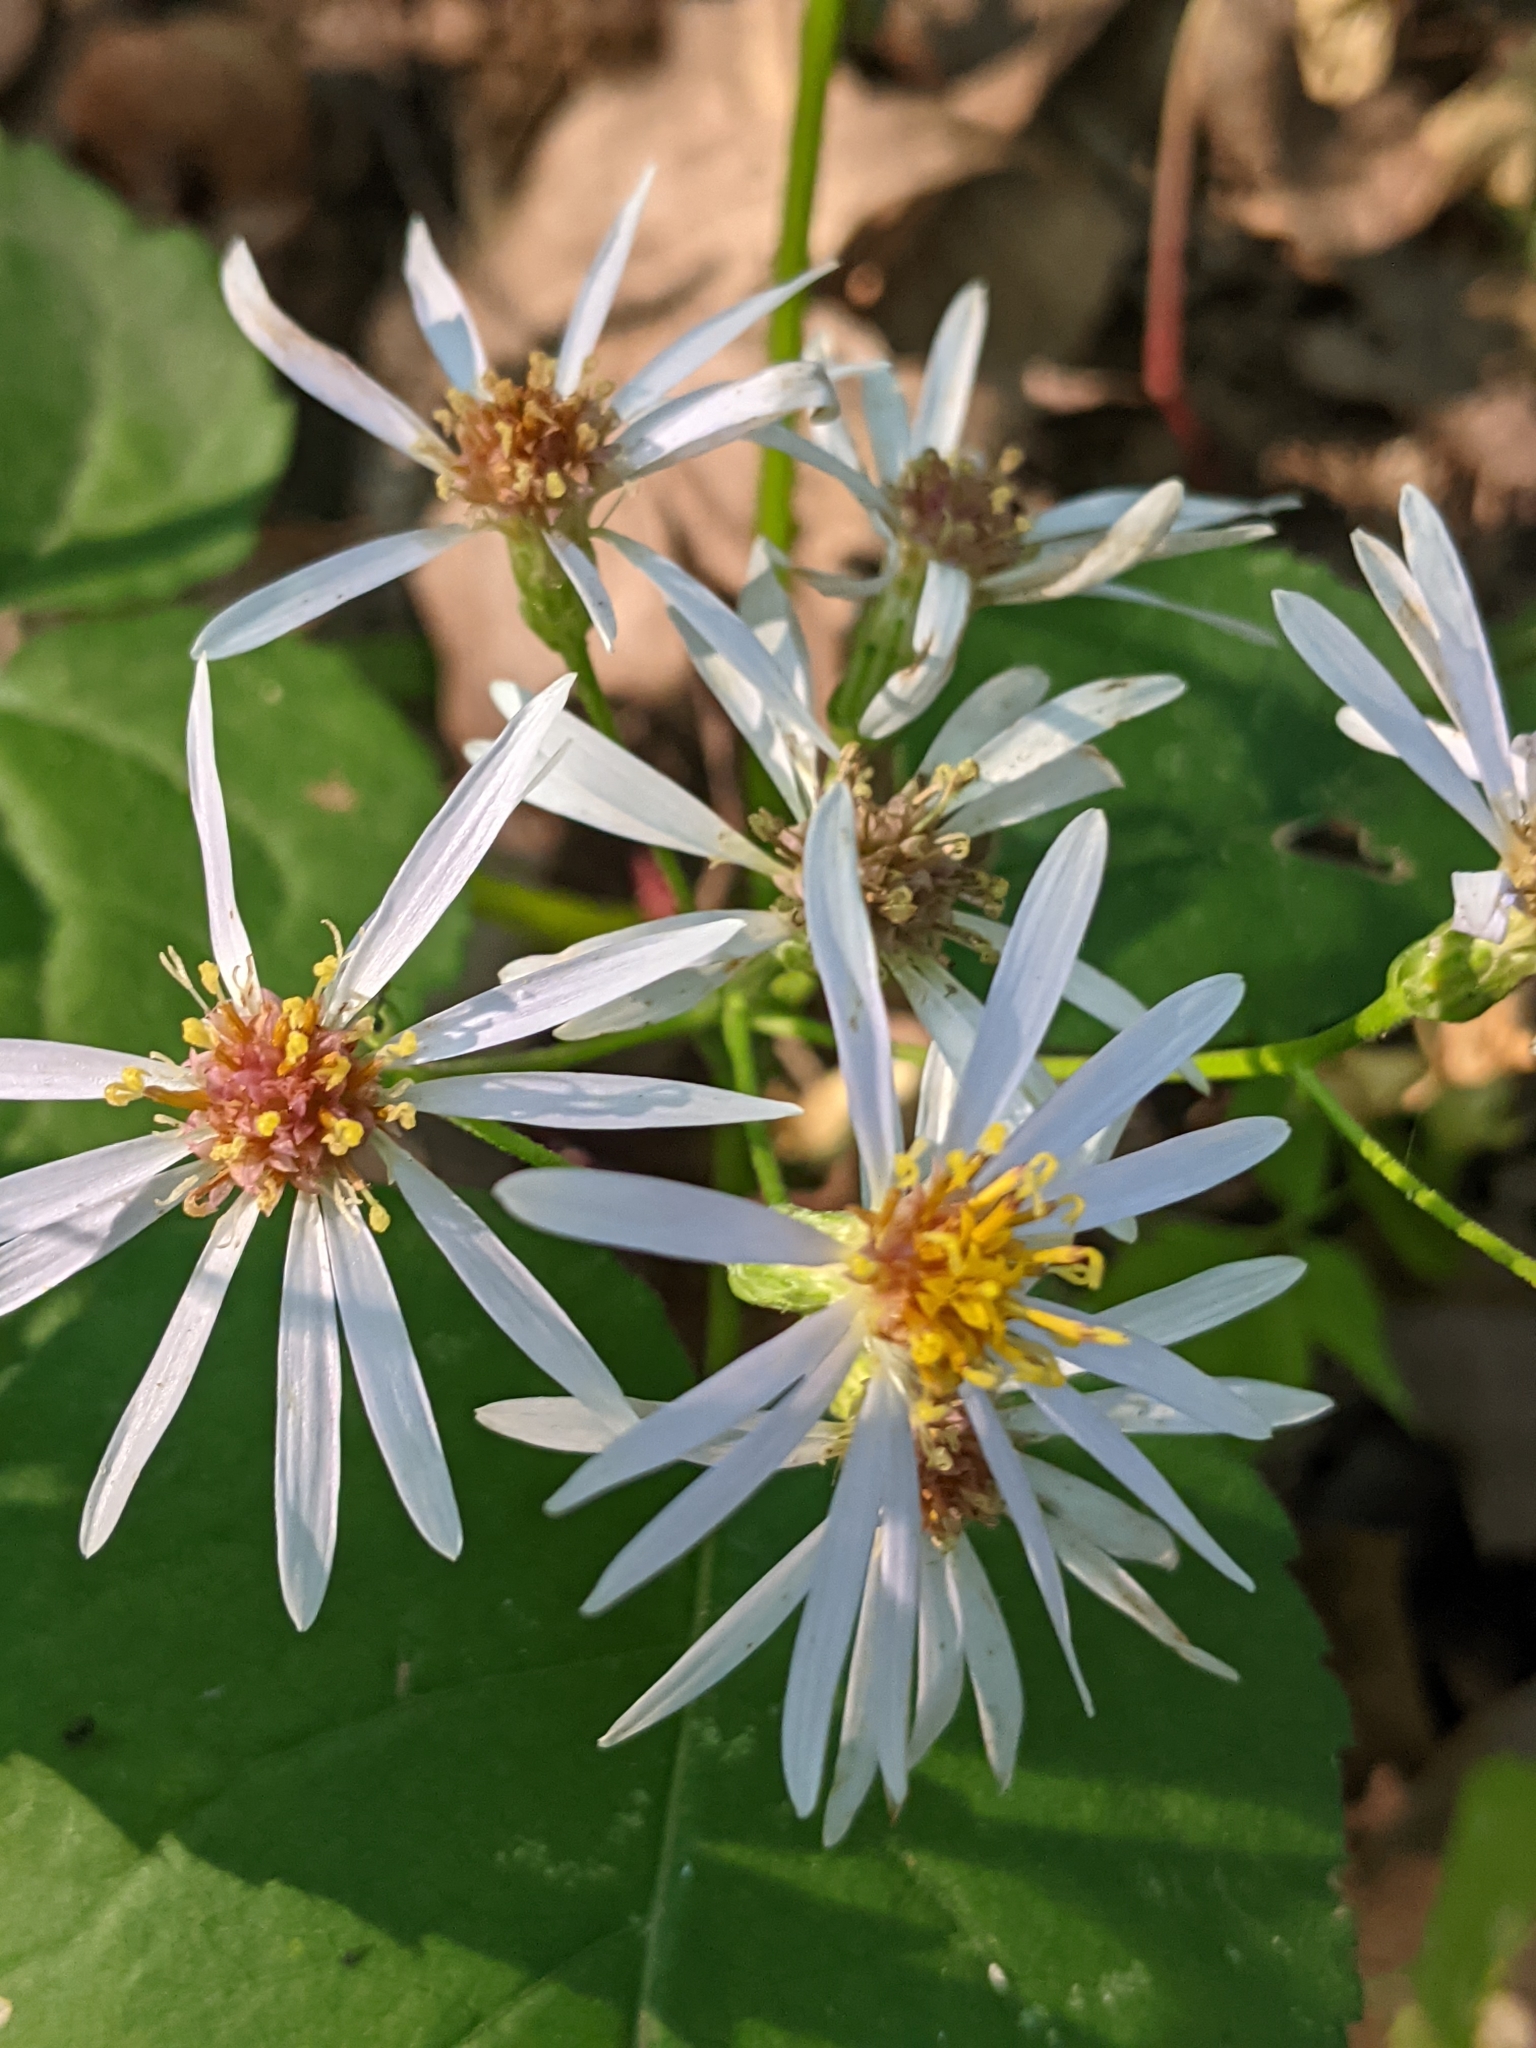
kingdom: Plantae
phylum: Tracheophyta
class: Magnoliopsida
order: Asterales
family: Asteraceae
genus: Eurybia
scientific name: Eurybia macrophylla
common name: Big-leaved aster
